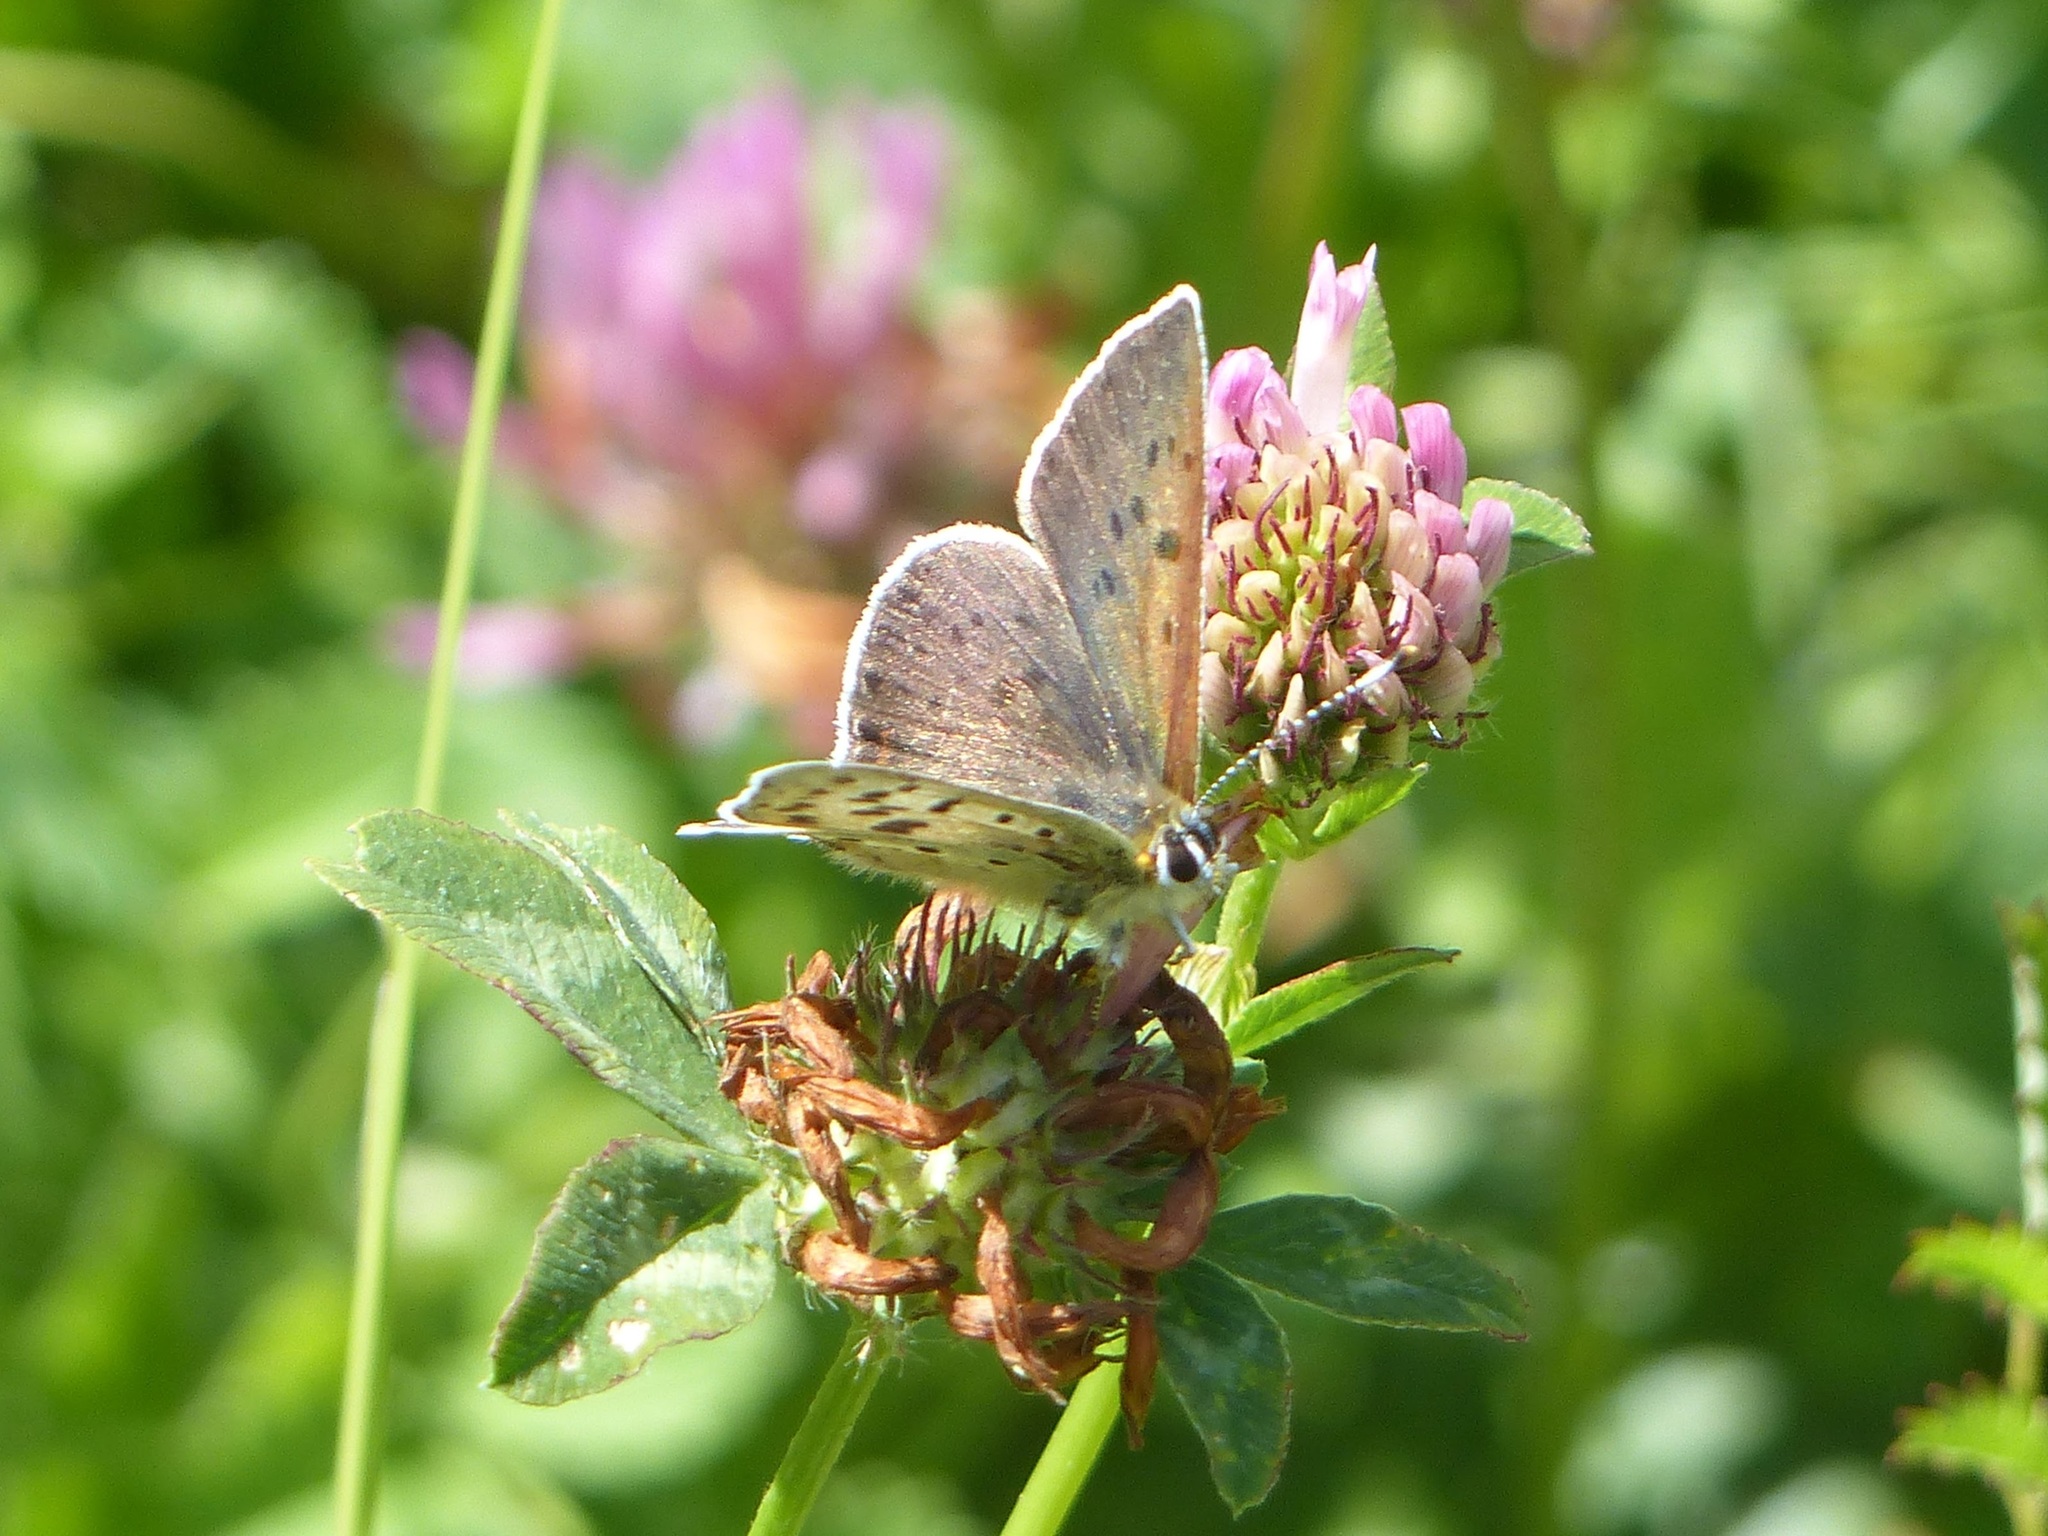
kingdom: Animalia
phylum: Arthropoda
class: Insecta
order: Lepidoptera
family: Lycaenidae
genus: Loweia
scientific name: Loweia tityrus
